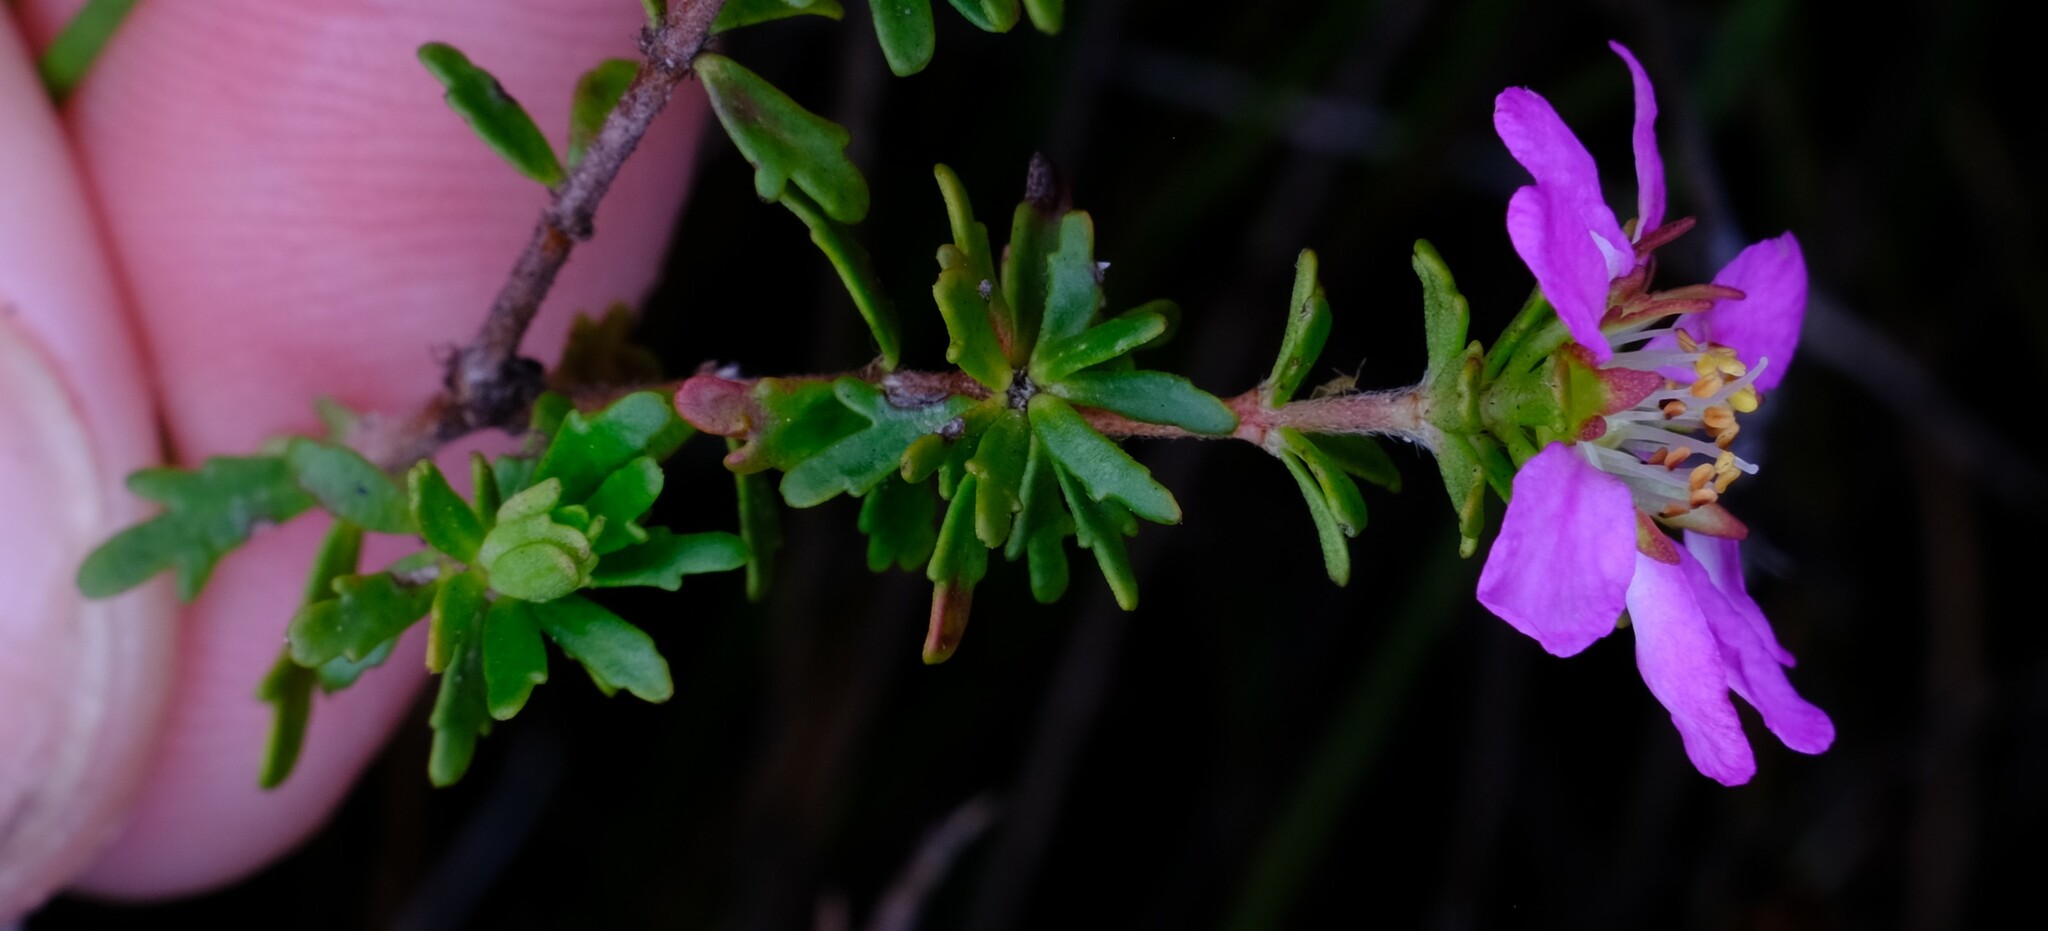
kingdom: Plantae
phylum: Tracheophyta
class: Magnoliopsida
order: Oxalidales
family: Cunoniaceae
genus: Bauera
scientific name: Bauera capitata
